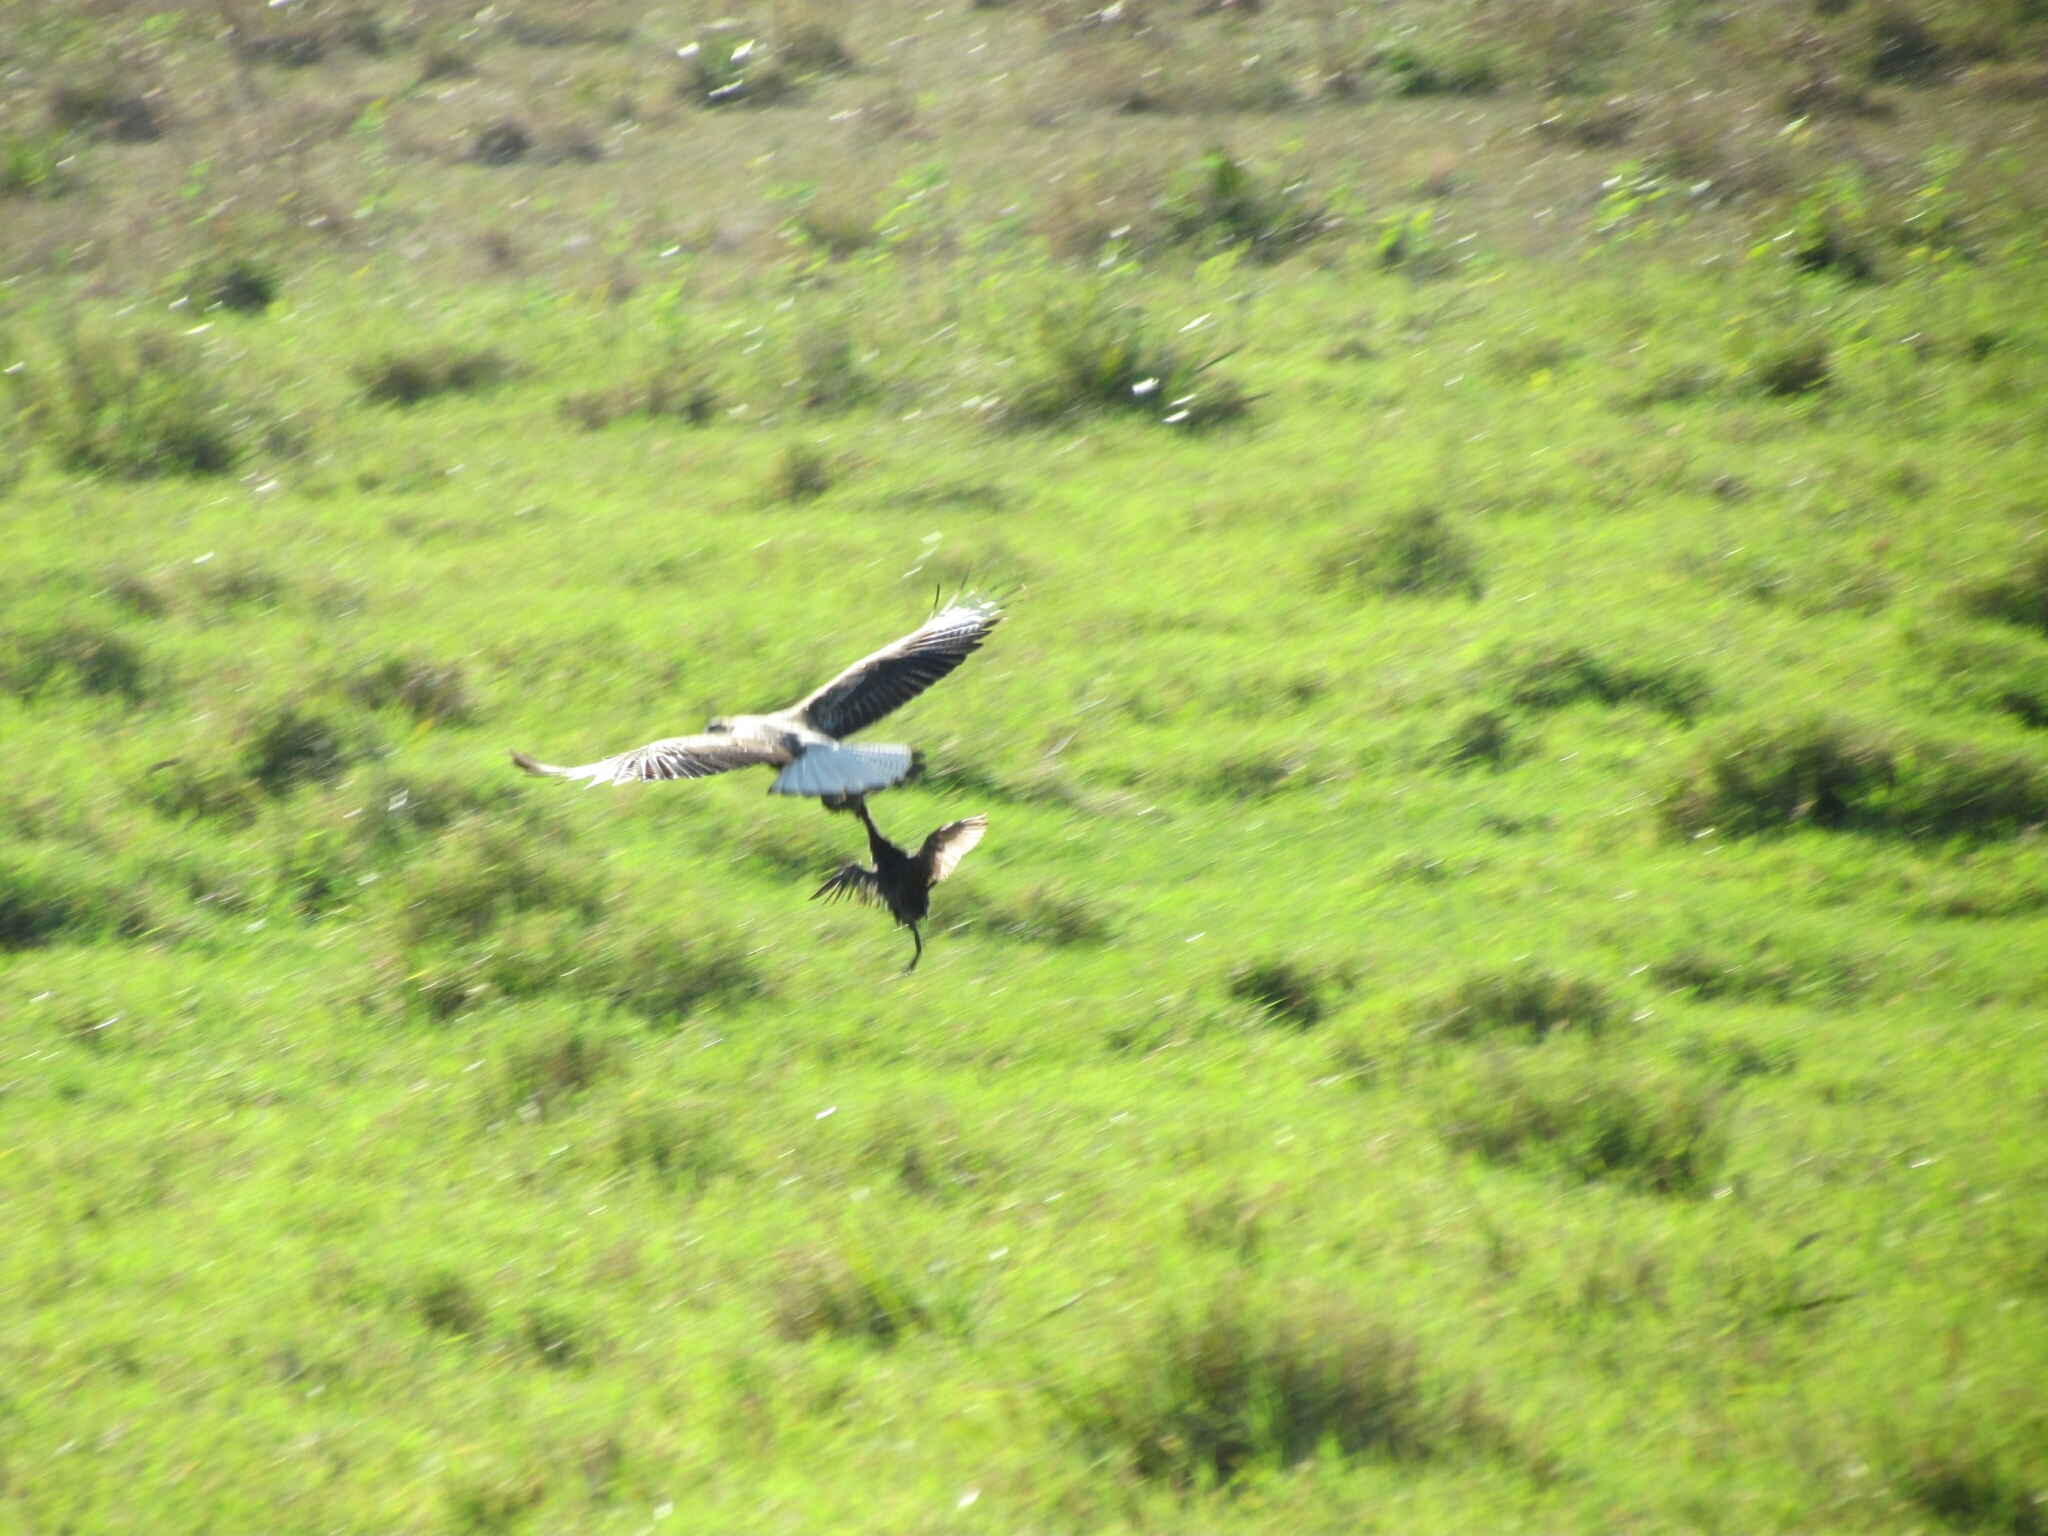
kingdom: Animalia
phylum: Chordata
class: Aves
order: Falconiformes
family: Falconidae
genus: Caracara
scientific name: Caracara plancus
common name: Southern caracara
